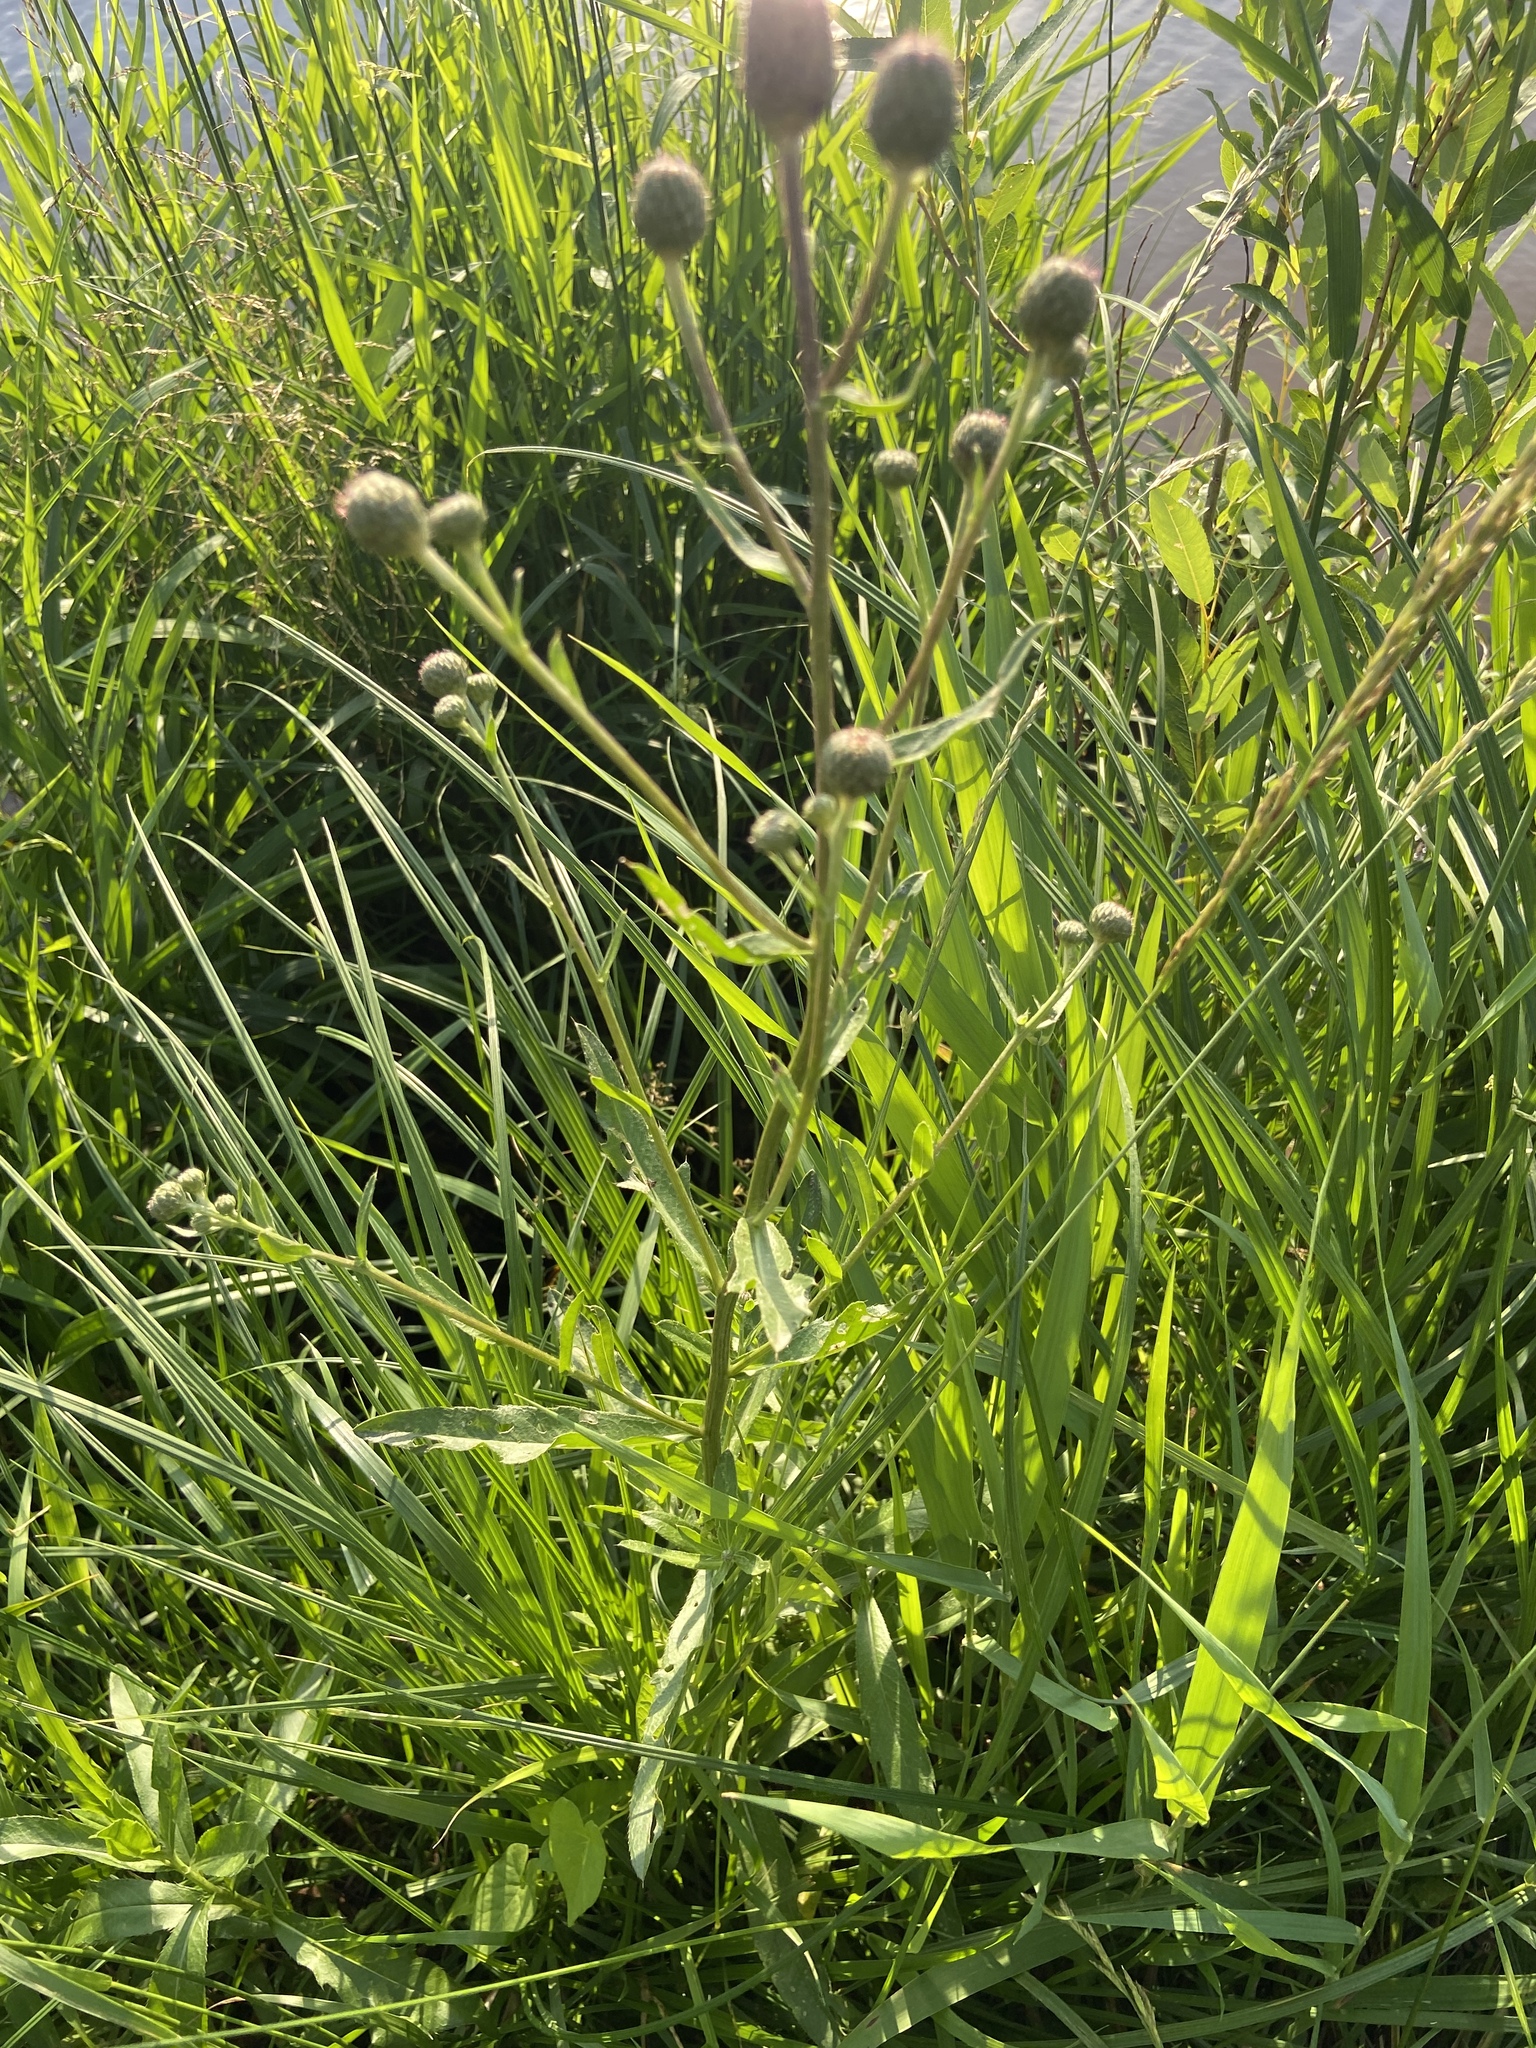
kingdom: Plantae
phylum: Tracheophyta
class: Magnoliopsida
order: Asterales
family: Asteraceae
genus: Cirsium
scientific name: Cirsium arvense
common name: Creeping thistle
